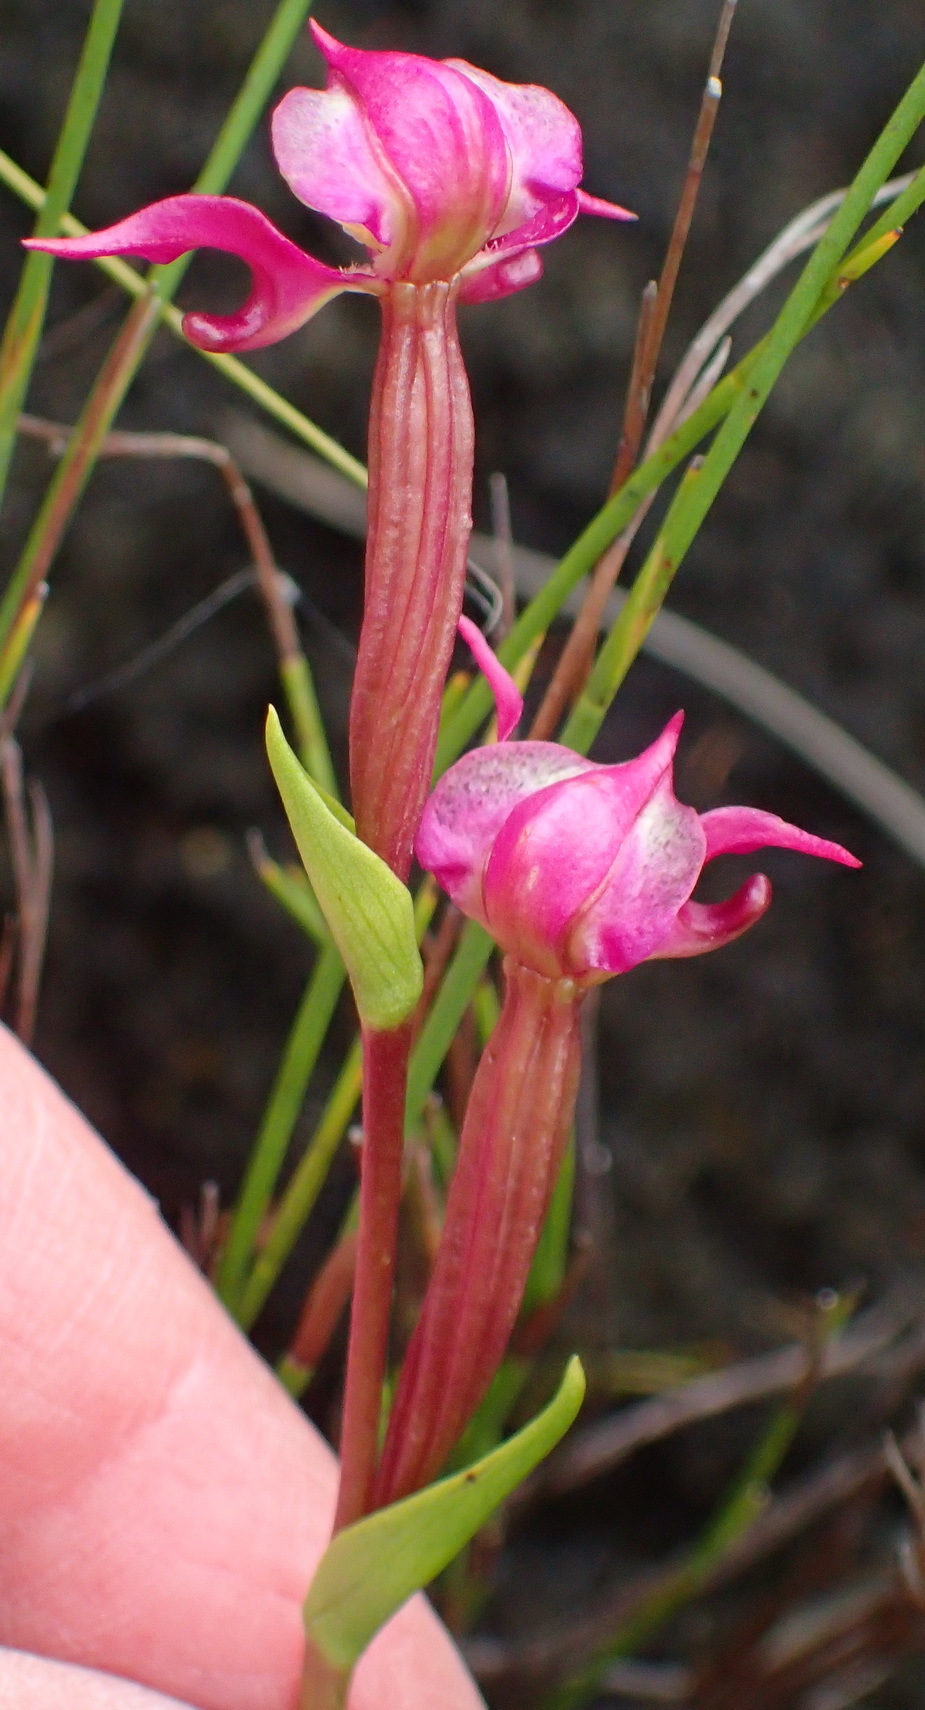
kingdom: Plantae
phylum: Tracheophyta
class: Liliopsida
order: Asparagales
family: Orchidaceae
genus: Disperis
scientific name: Disperis paludosa
